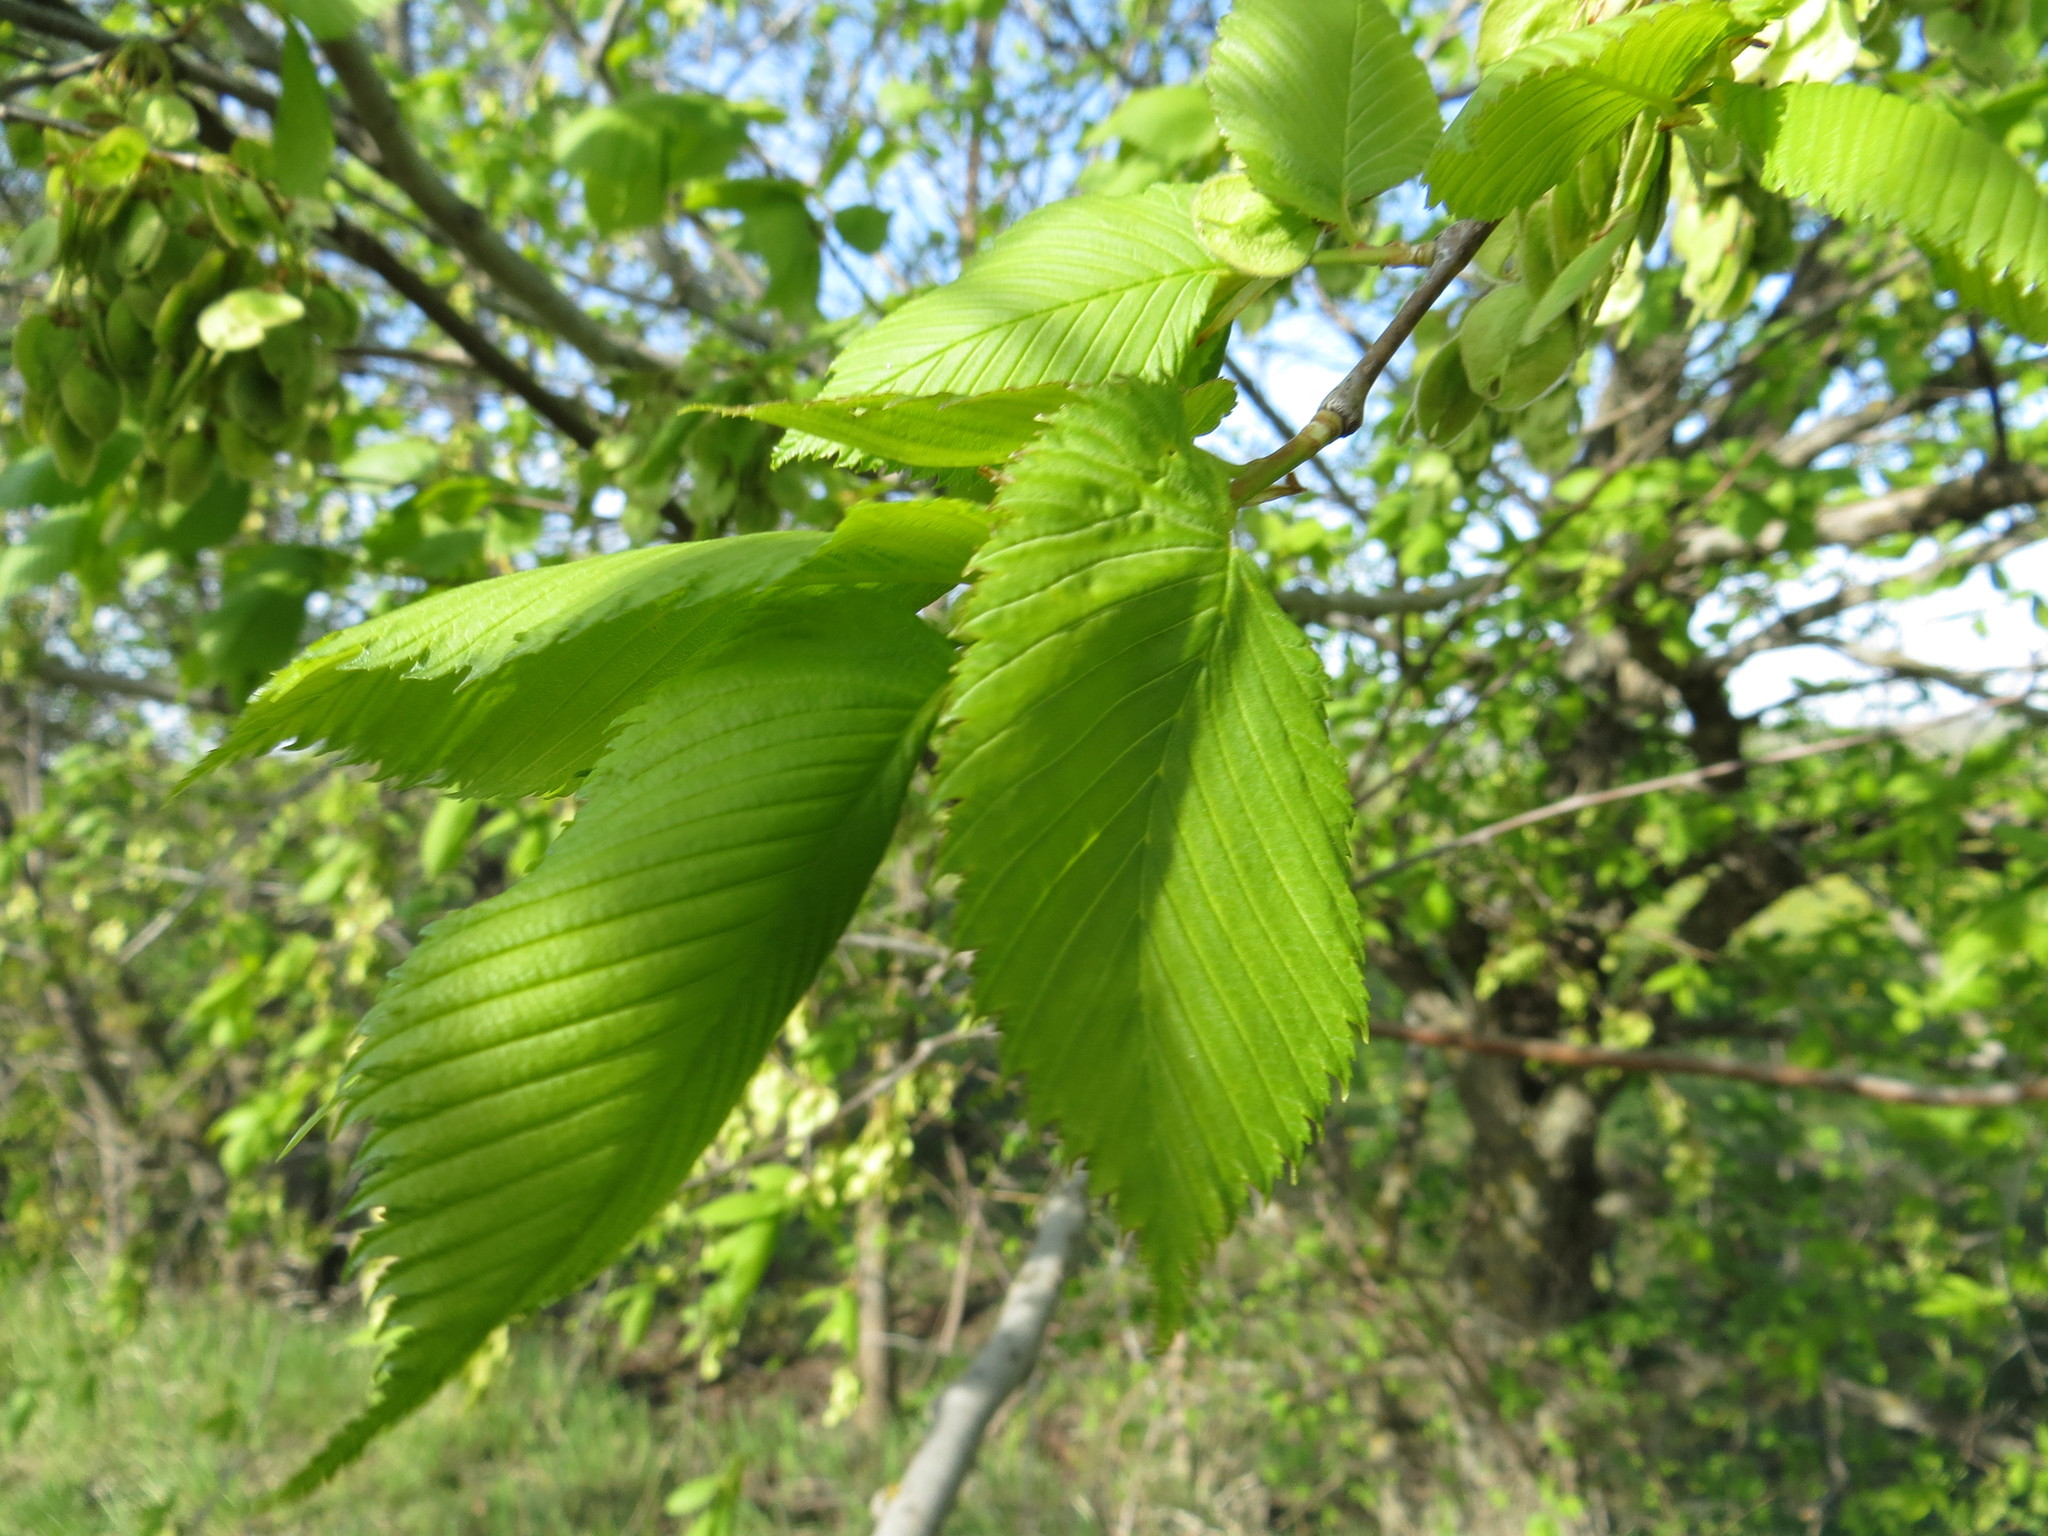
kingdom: Plantae
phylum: Tracheophyta
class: Magnoliopsida
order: Rosales
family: Ulmaceae
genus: Ulmus
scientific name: Ulmus laevis
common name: European white-elm
